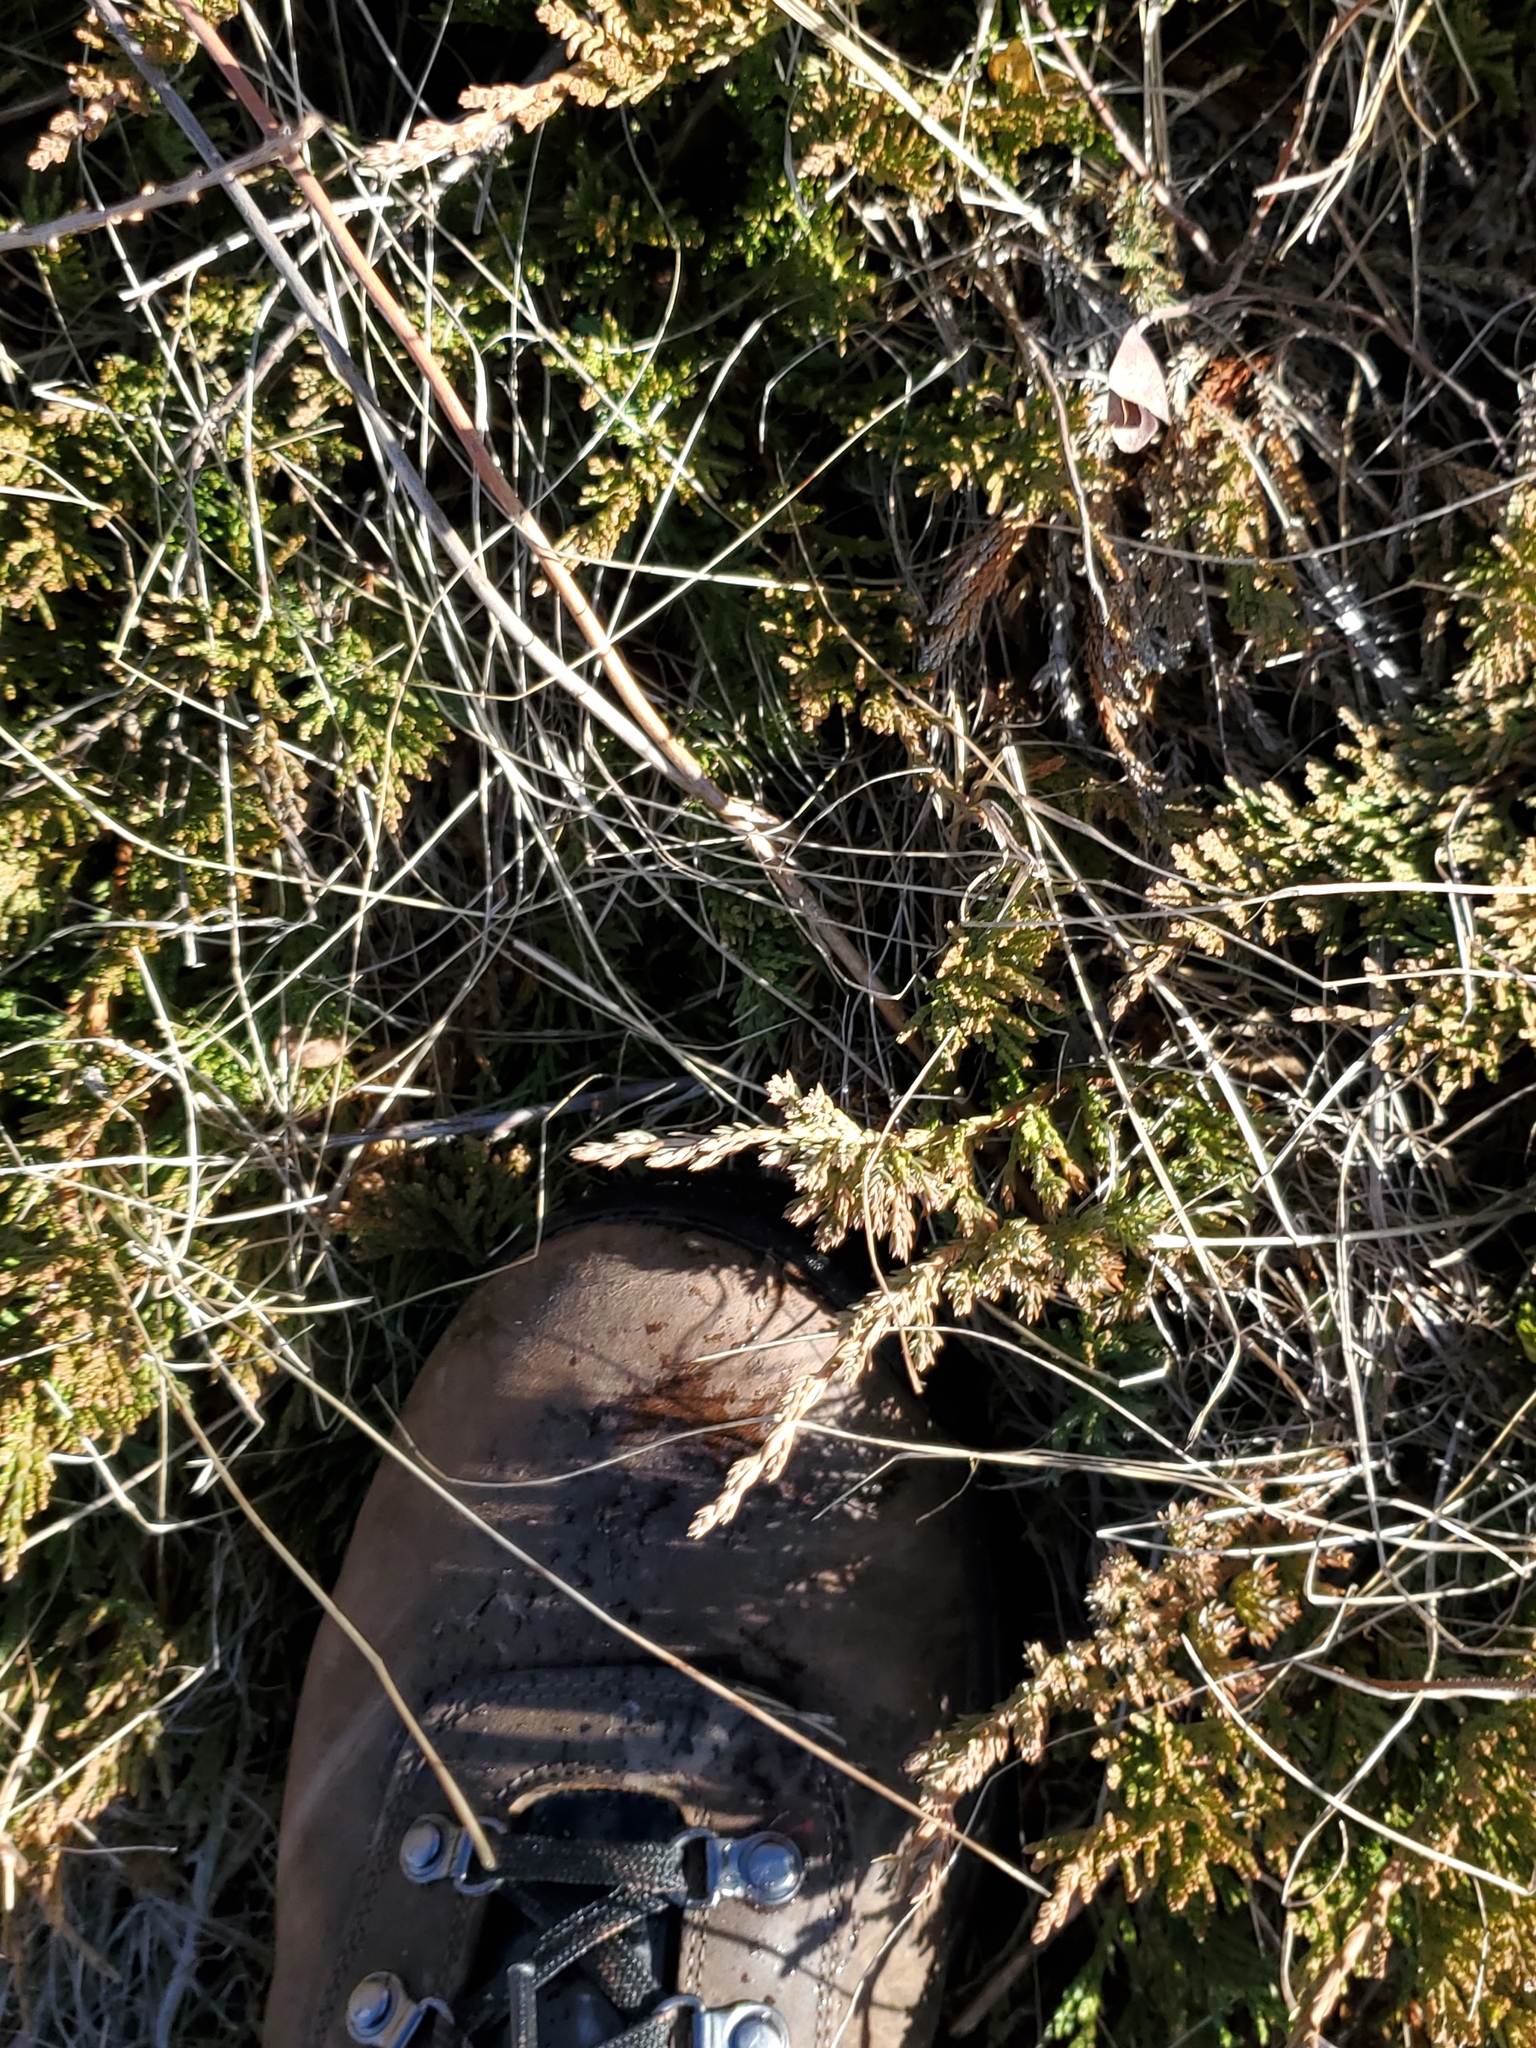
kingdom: Plantae
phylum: Tracheophyta
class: Pinopsida
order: Pinales
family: Cupressaceae
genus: Juniperus
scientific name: Juniperus horizontalis
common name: Creeping juniper
